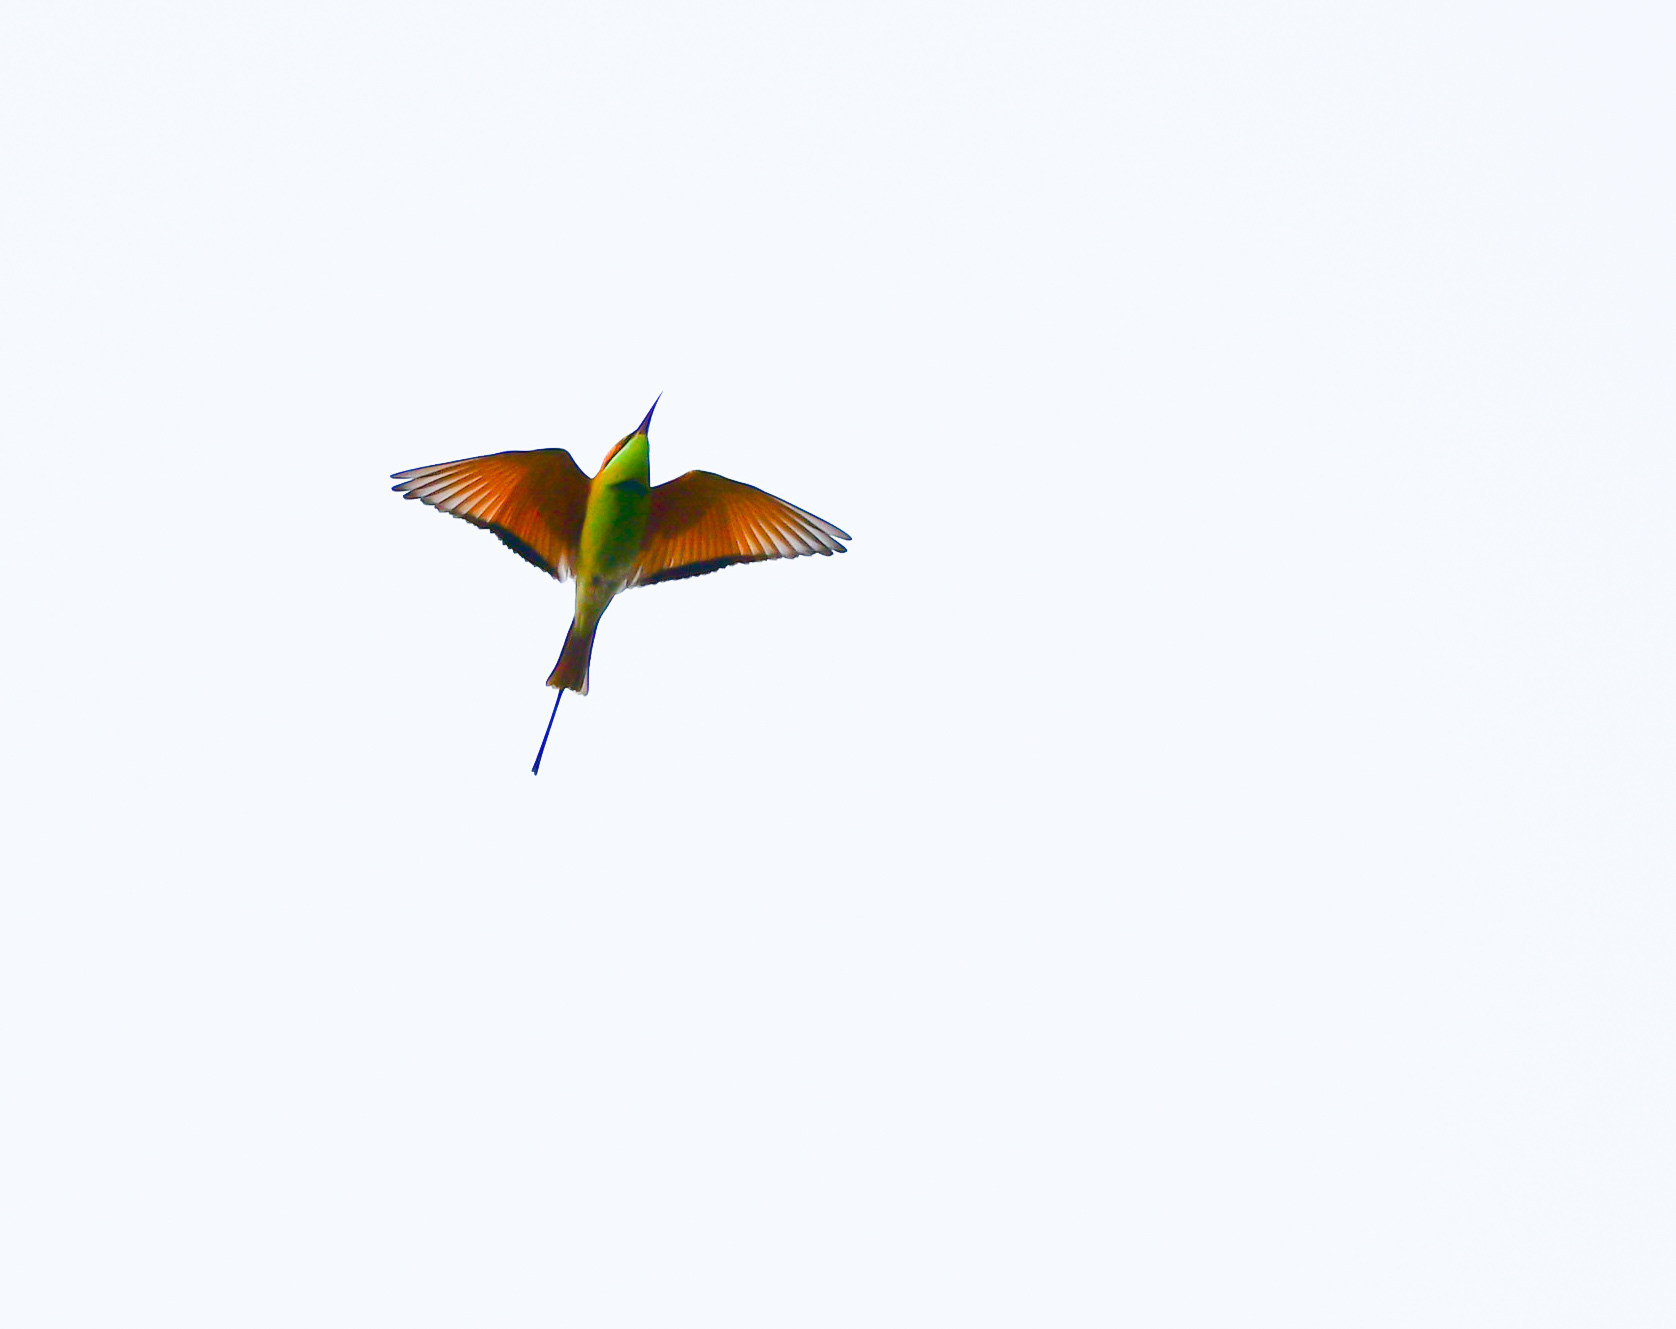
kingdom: Animalia
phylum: Chordata
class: Aves
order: Coraciiformes
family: Meropidae
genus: Merops
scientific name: Merops orientalis
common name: Green bee-eater
